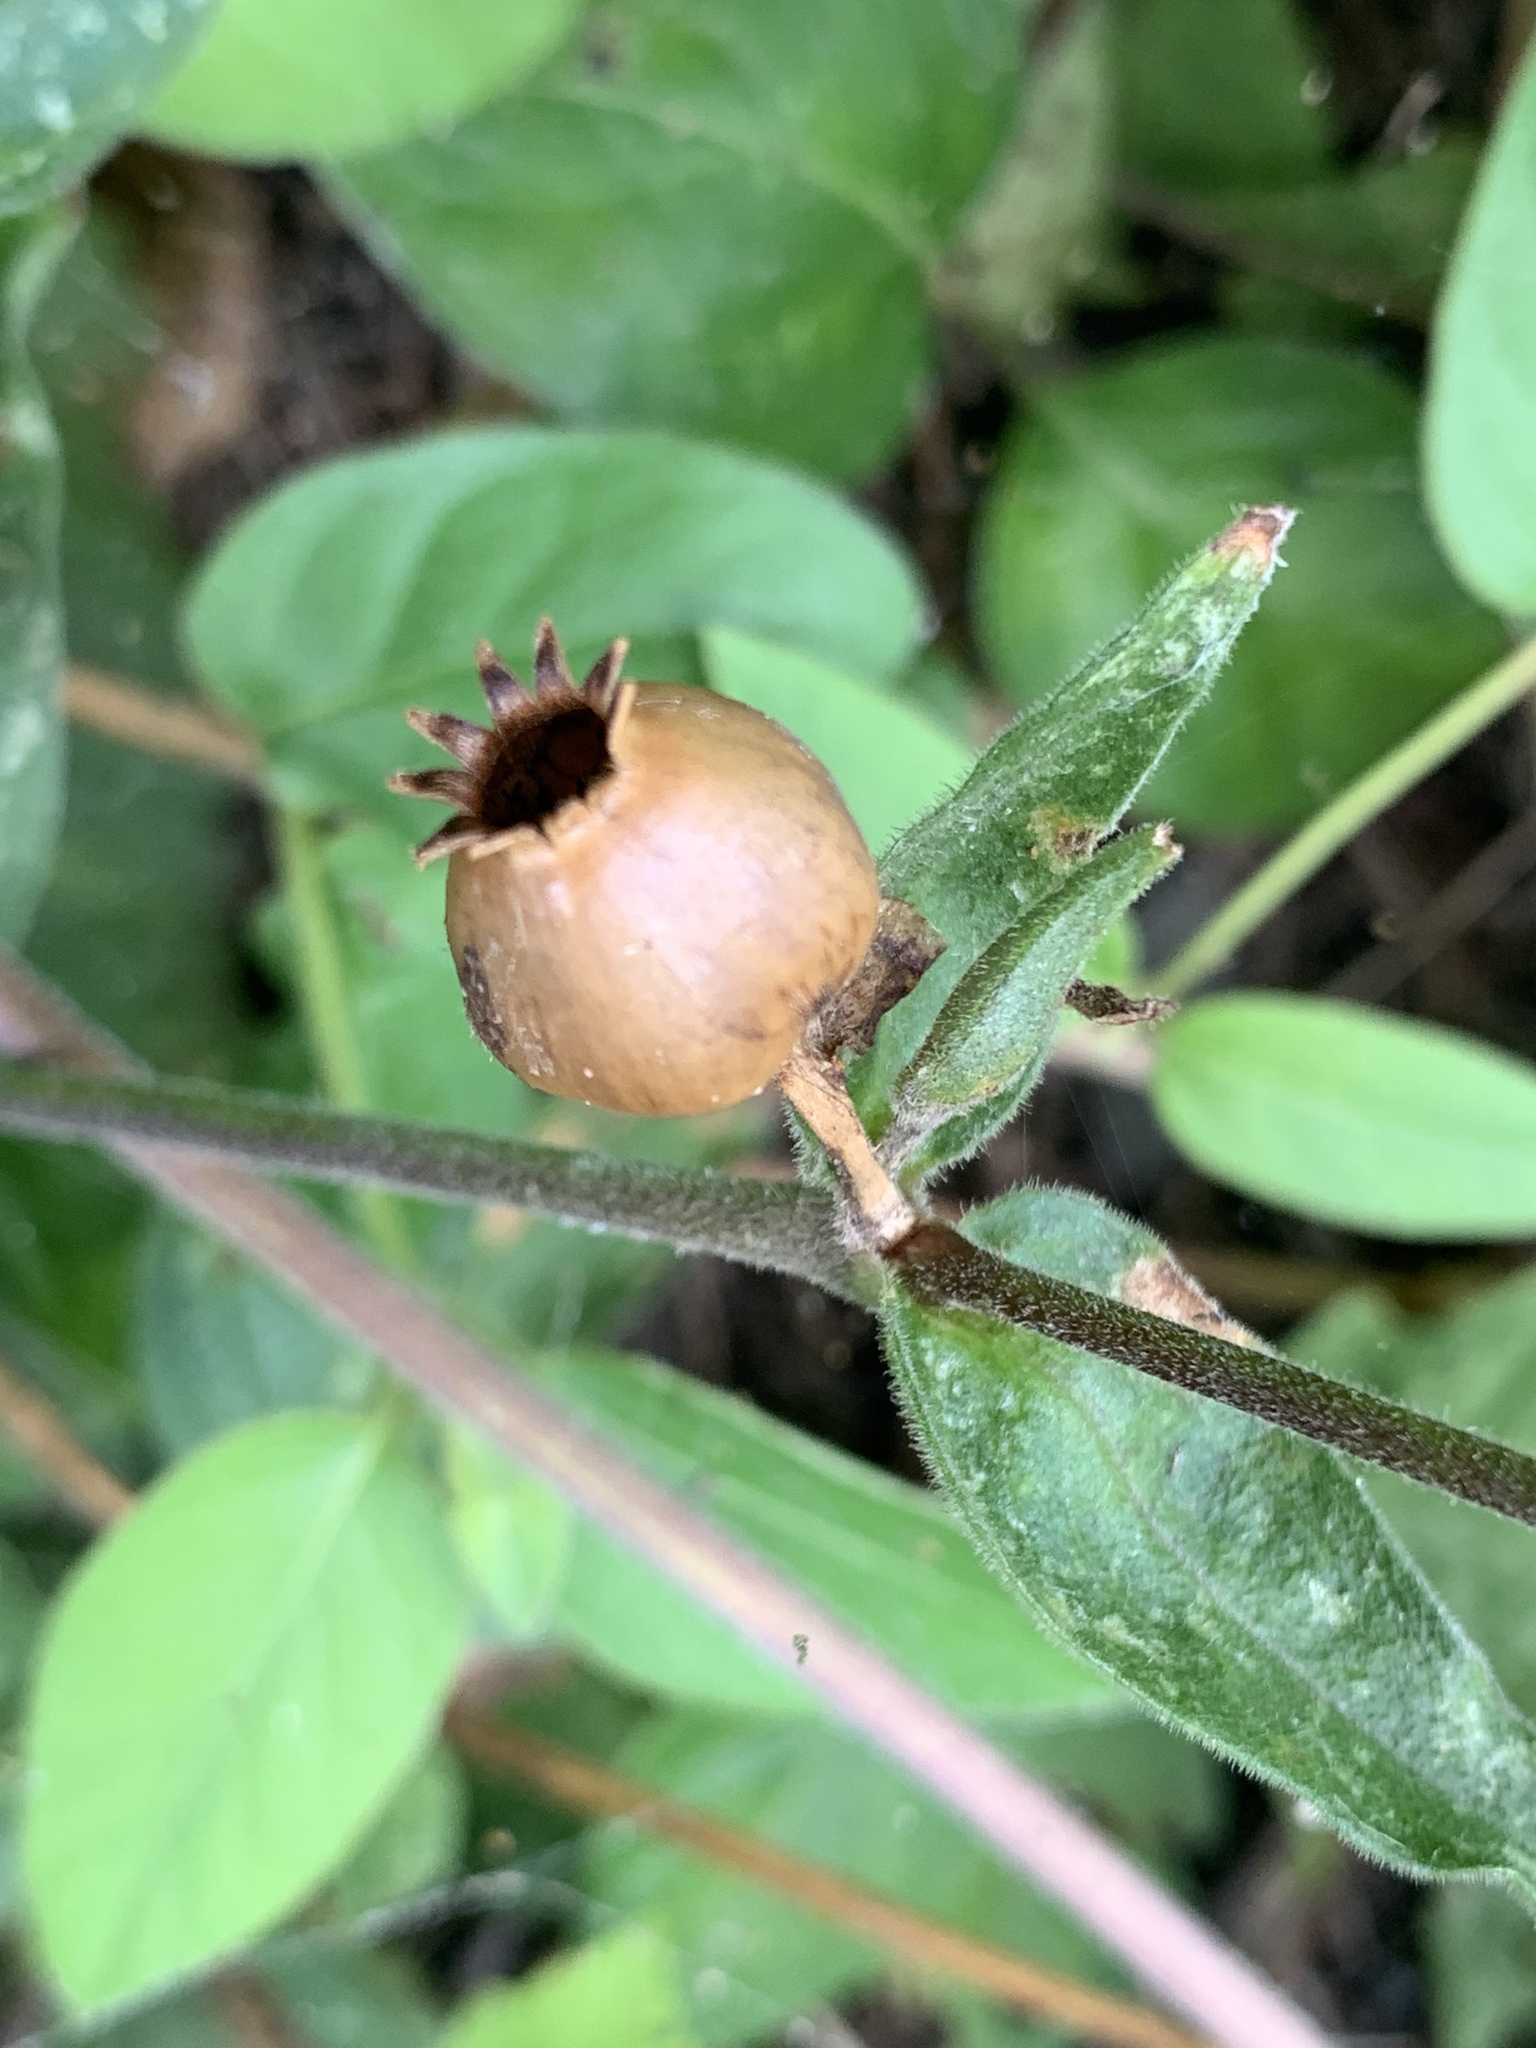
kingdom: Plantae
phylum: Tracheophyta
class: Magnoliopsida
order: Caryophyllales
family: Caryophyllaceae
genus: Silene
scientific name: Silene latifolia
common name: White campion
